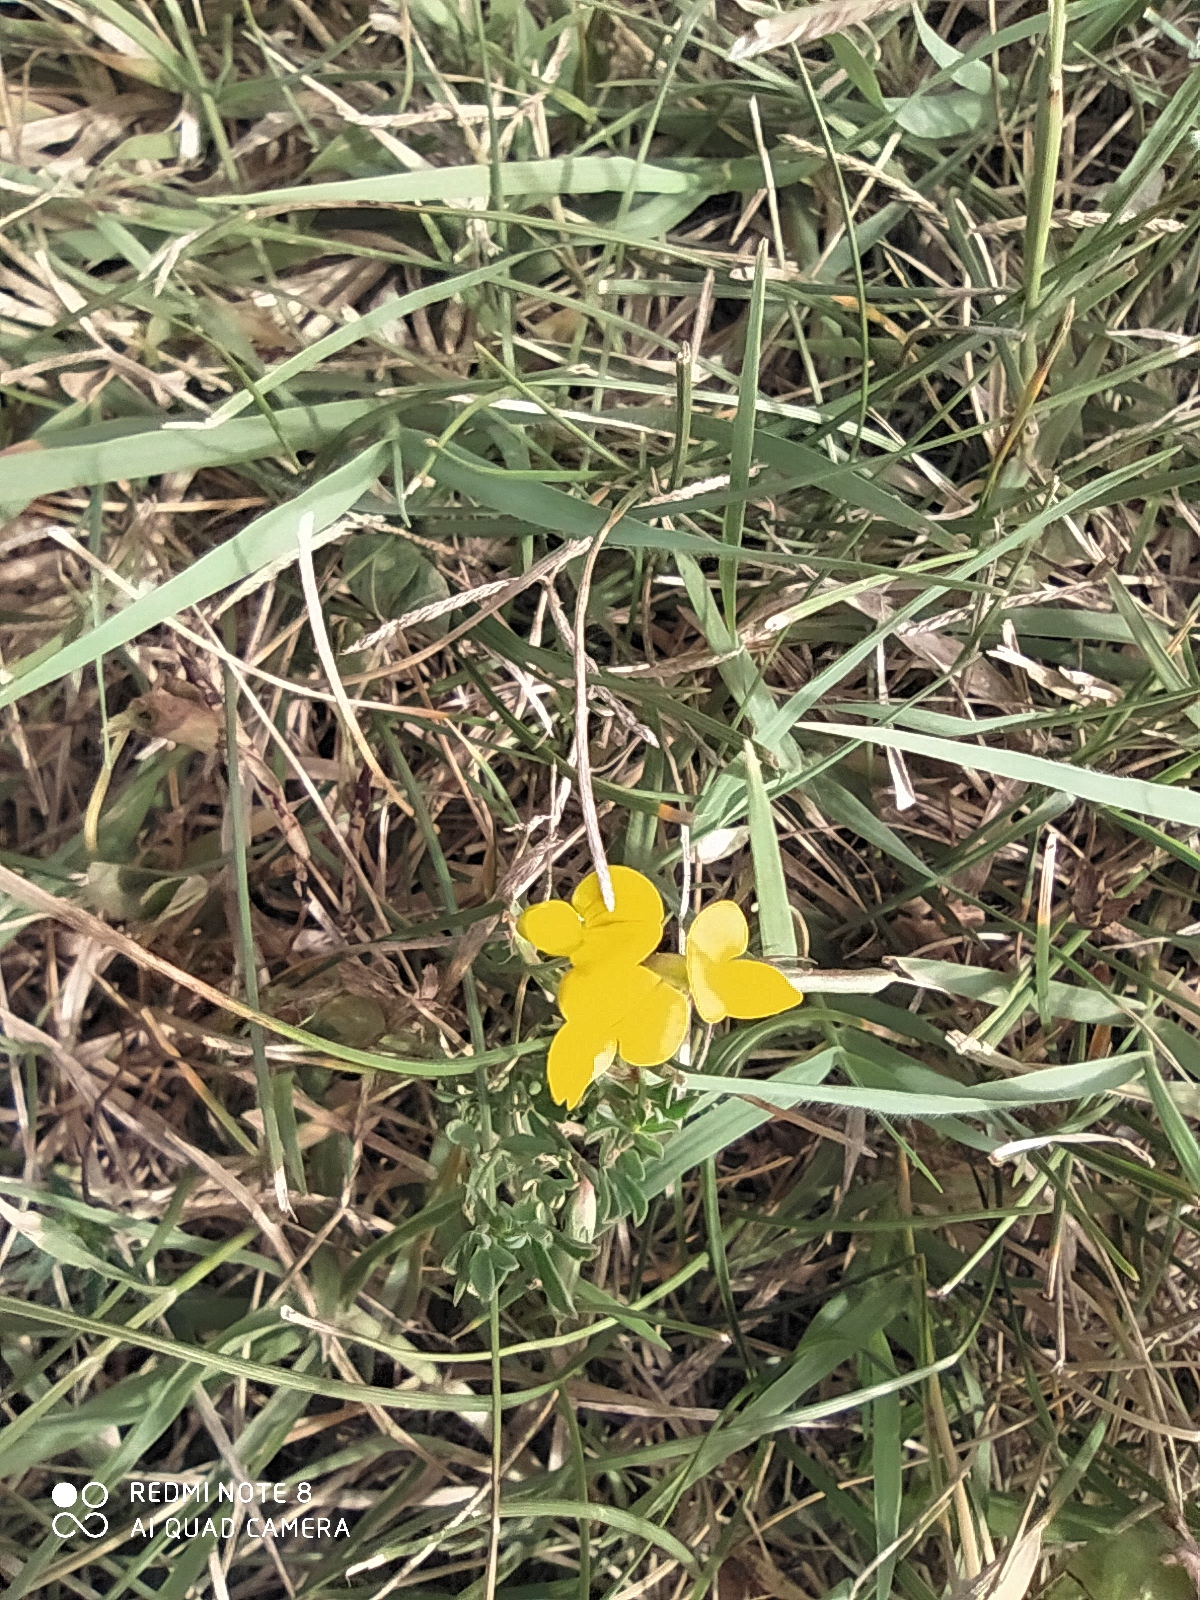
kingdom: Plantae
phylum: Tracheophyta
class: Magnoliopsida
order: Fabales
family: Fabaceae
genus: Lotus
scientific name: Lotus corniculatus
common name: Common bird's-foot-trefoil
